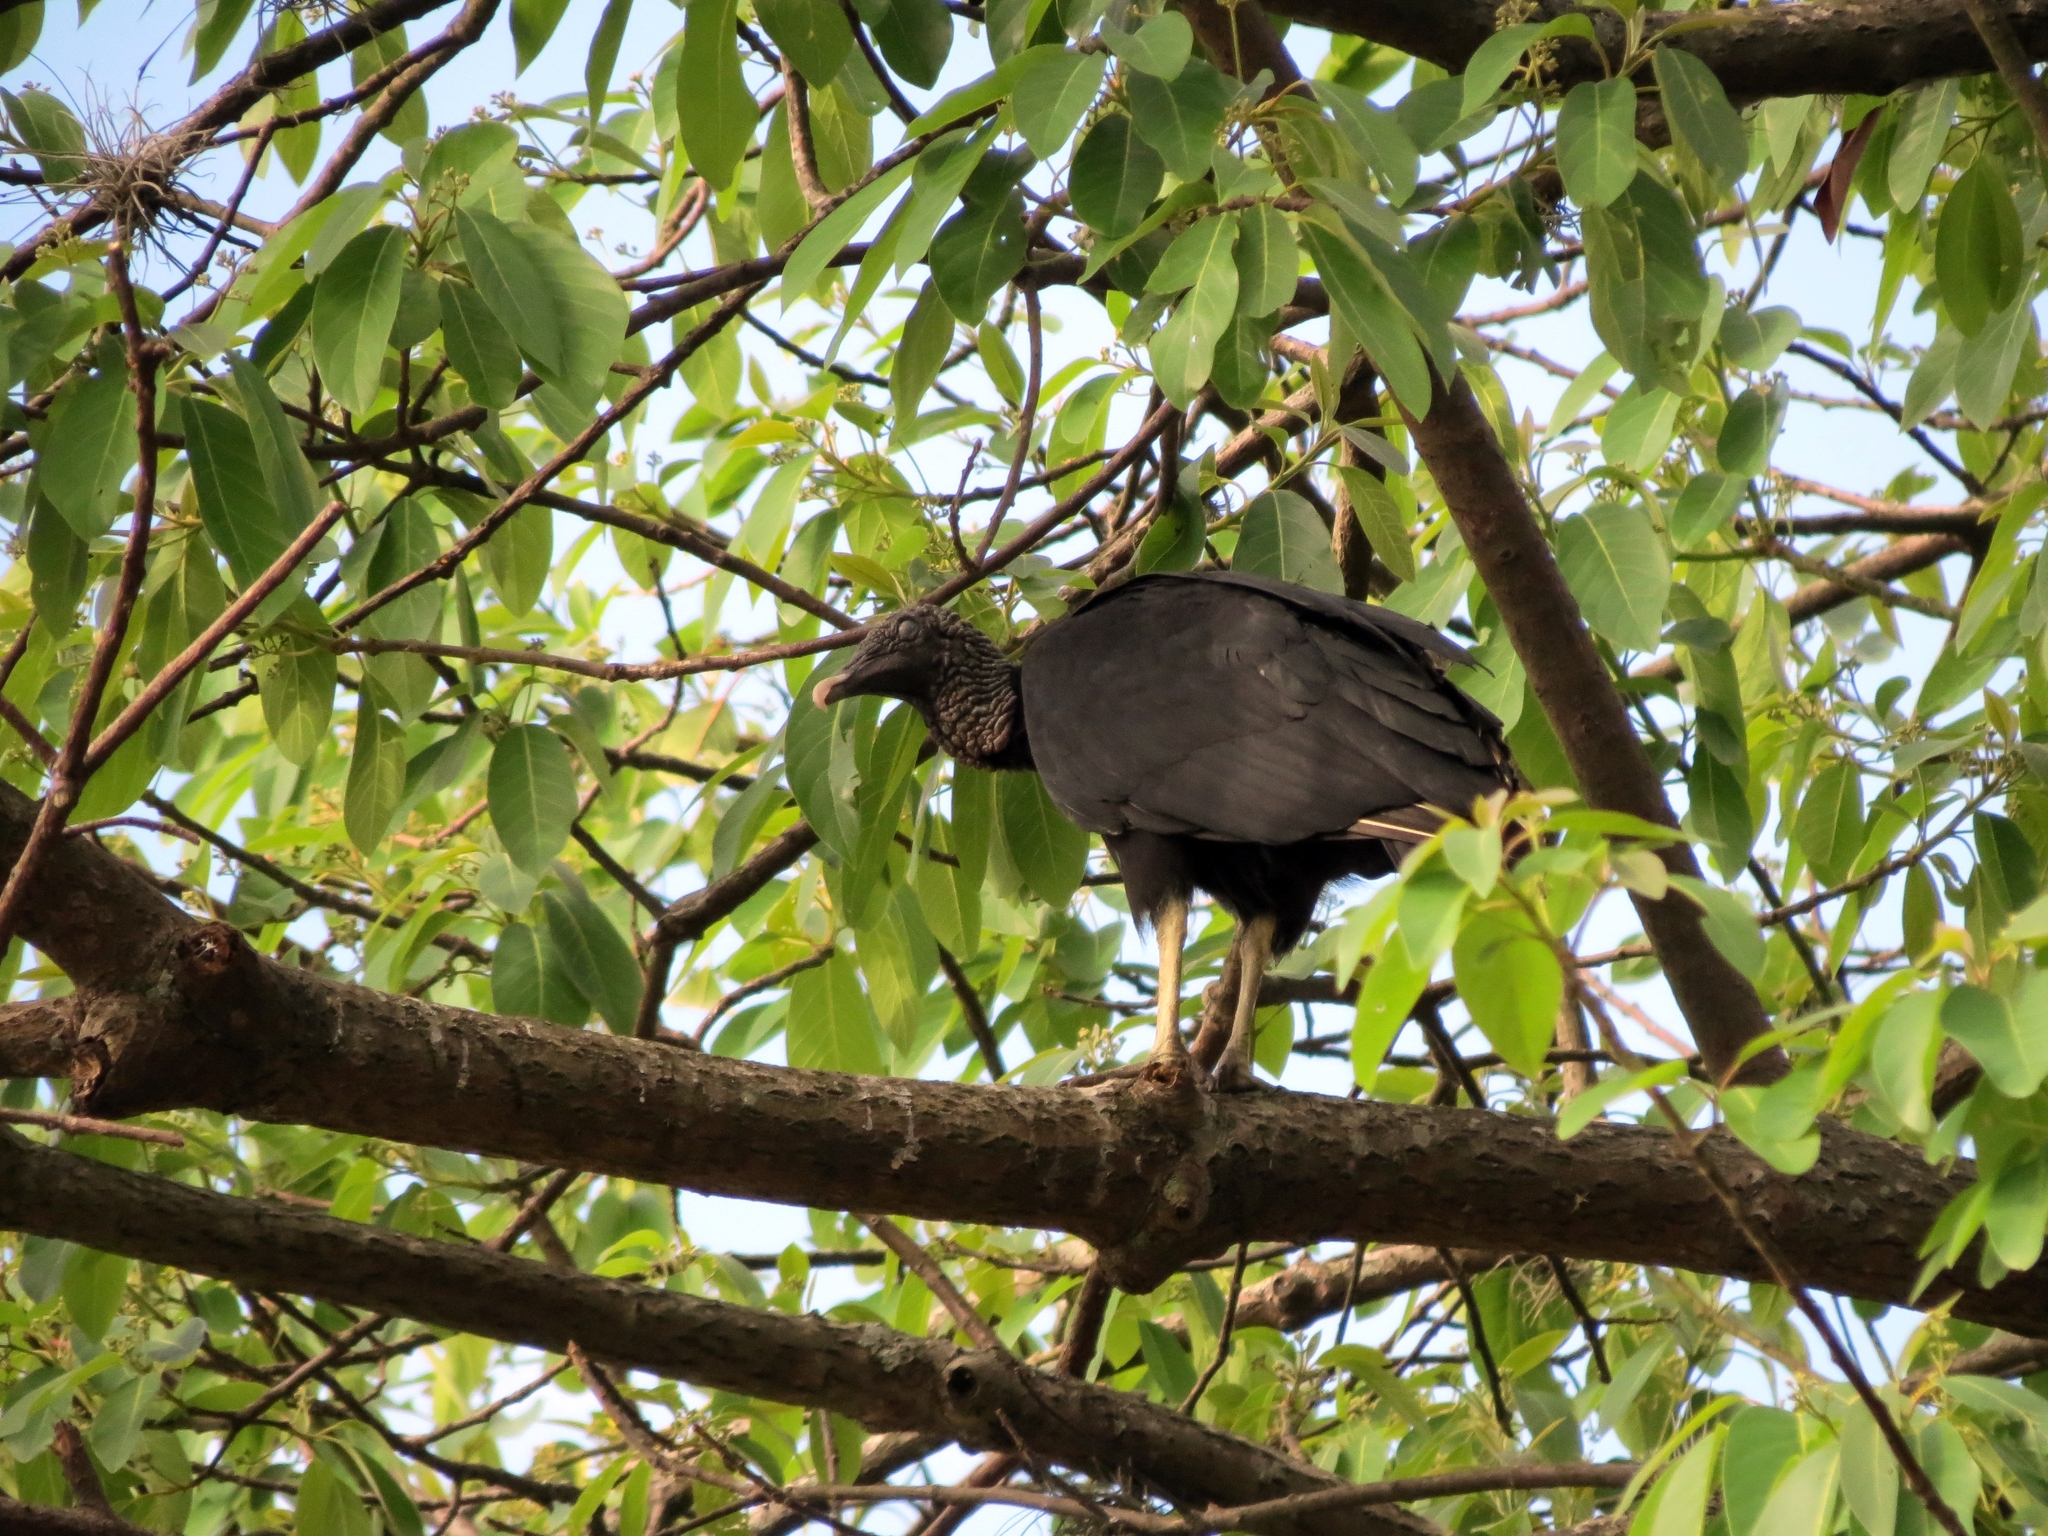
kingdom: Animalia
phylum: Chordata
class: Aves
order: Accipitriformes
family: Cathartidae
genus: Coragyps
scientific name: Coragyps atratus
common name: Black vulture
